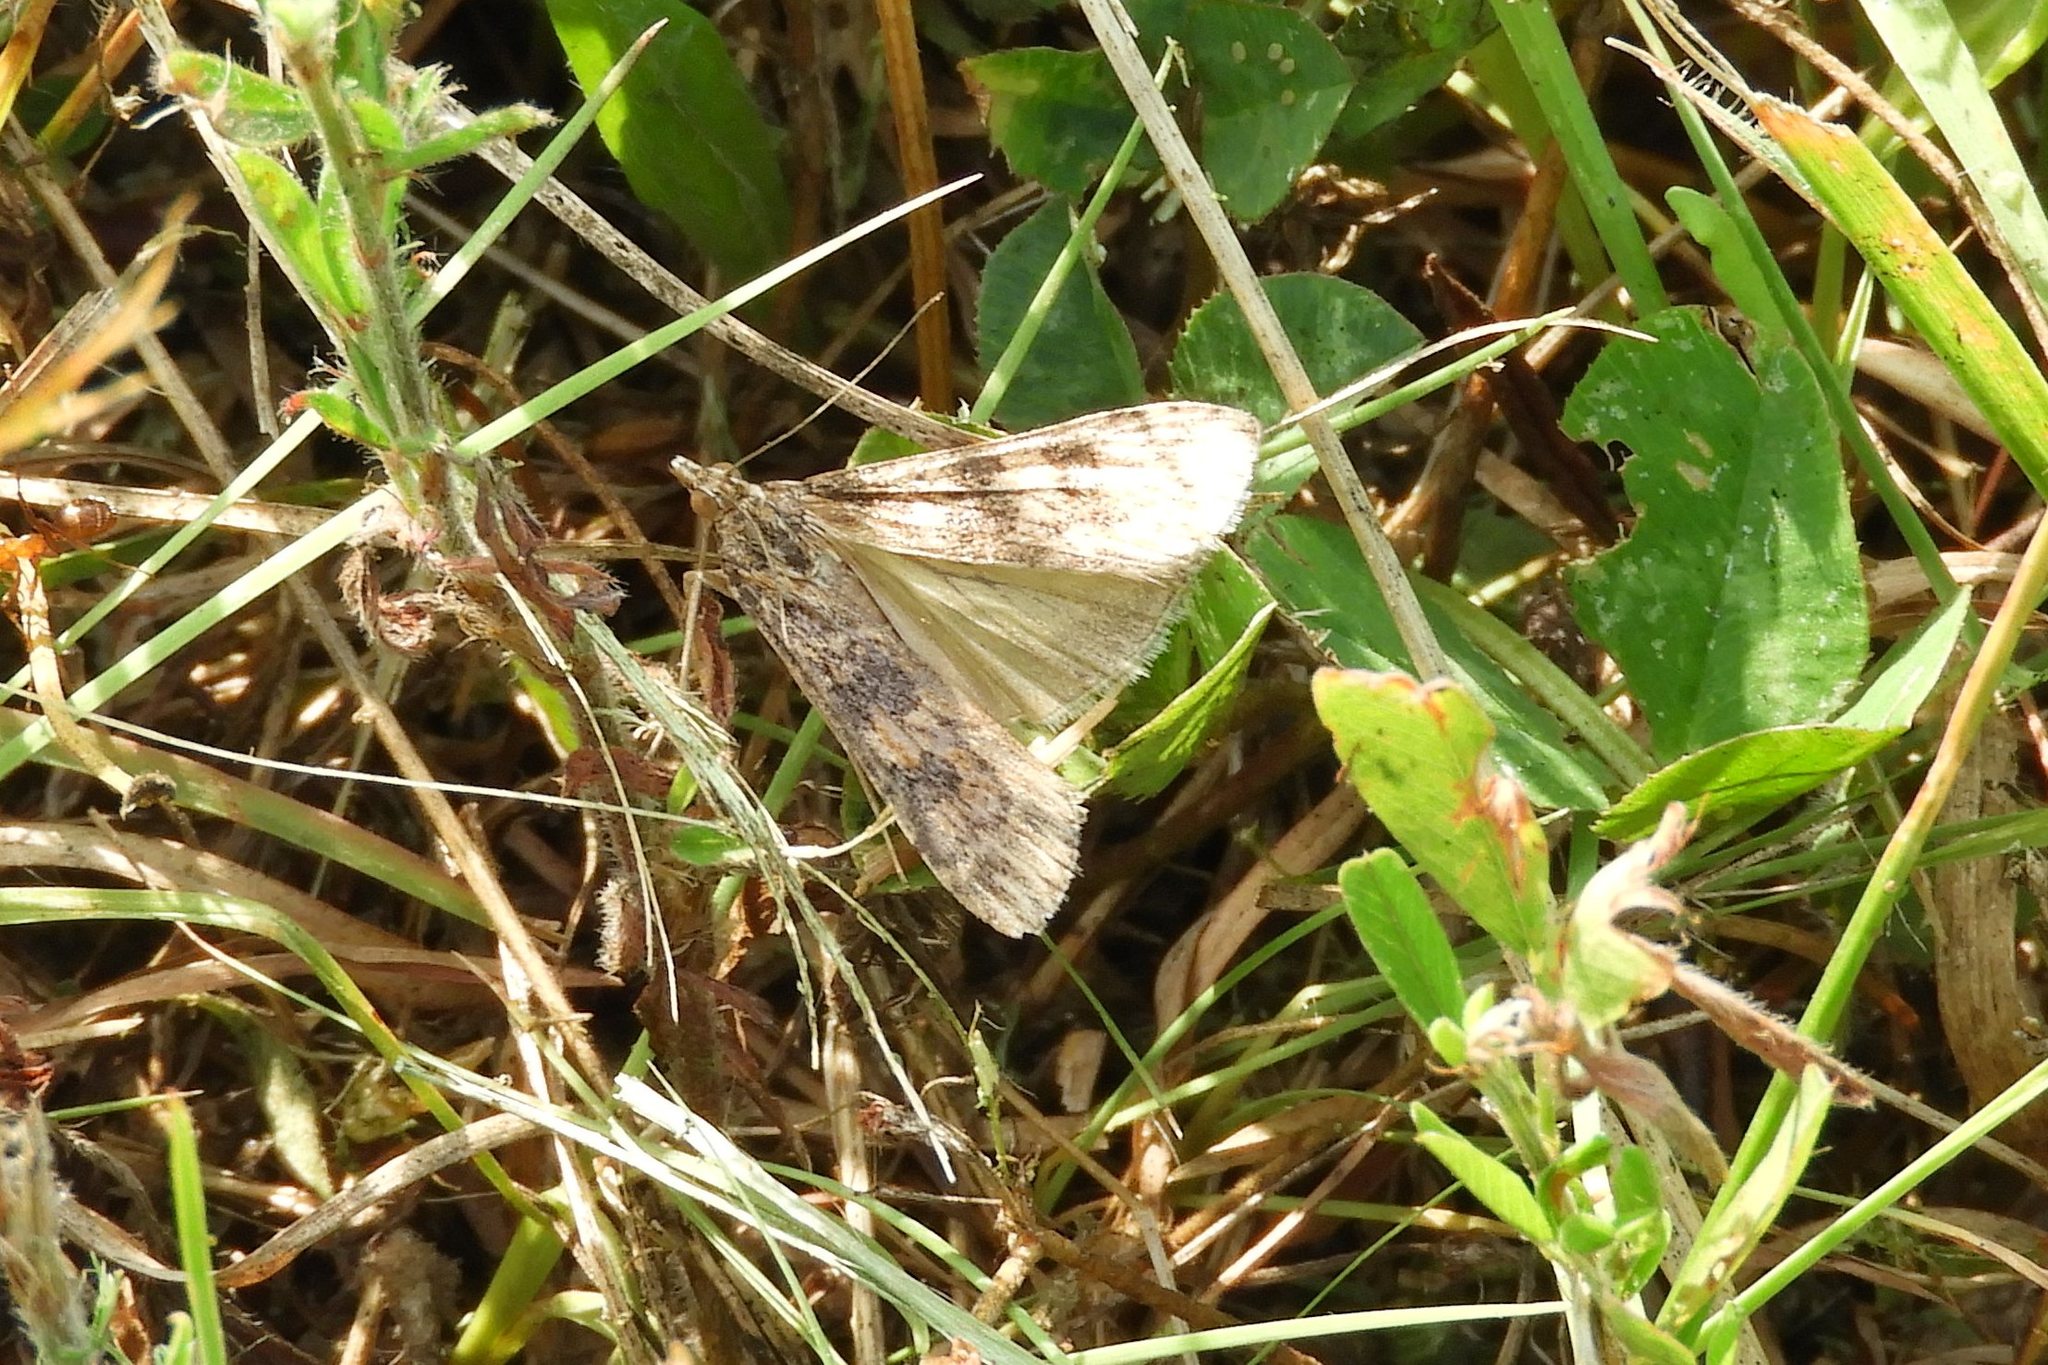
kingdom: Animalia
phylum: Arthropoda
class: Insecta
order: Lepidoptera
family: Crambidae
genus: Nomophila
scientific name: Nomophila nearctica
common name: American rush veneer
